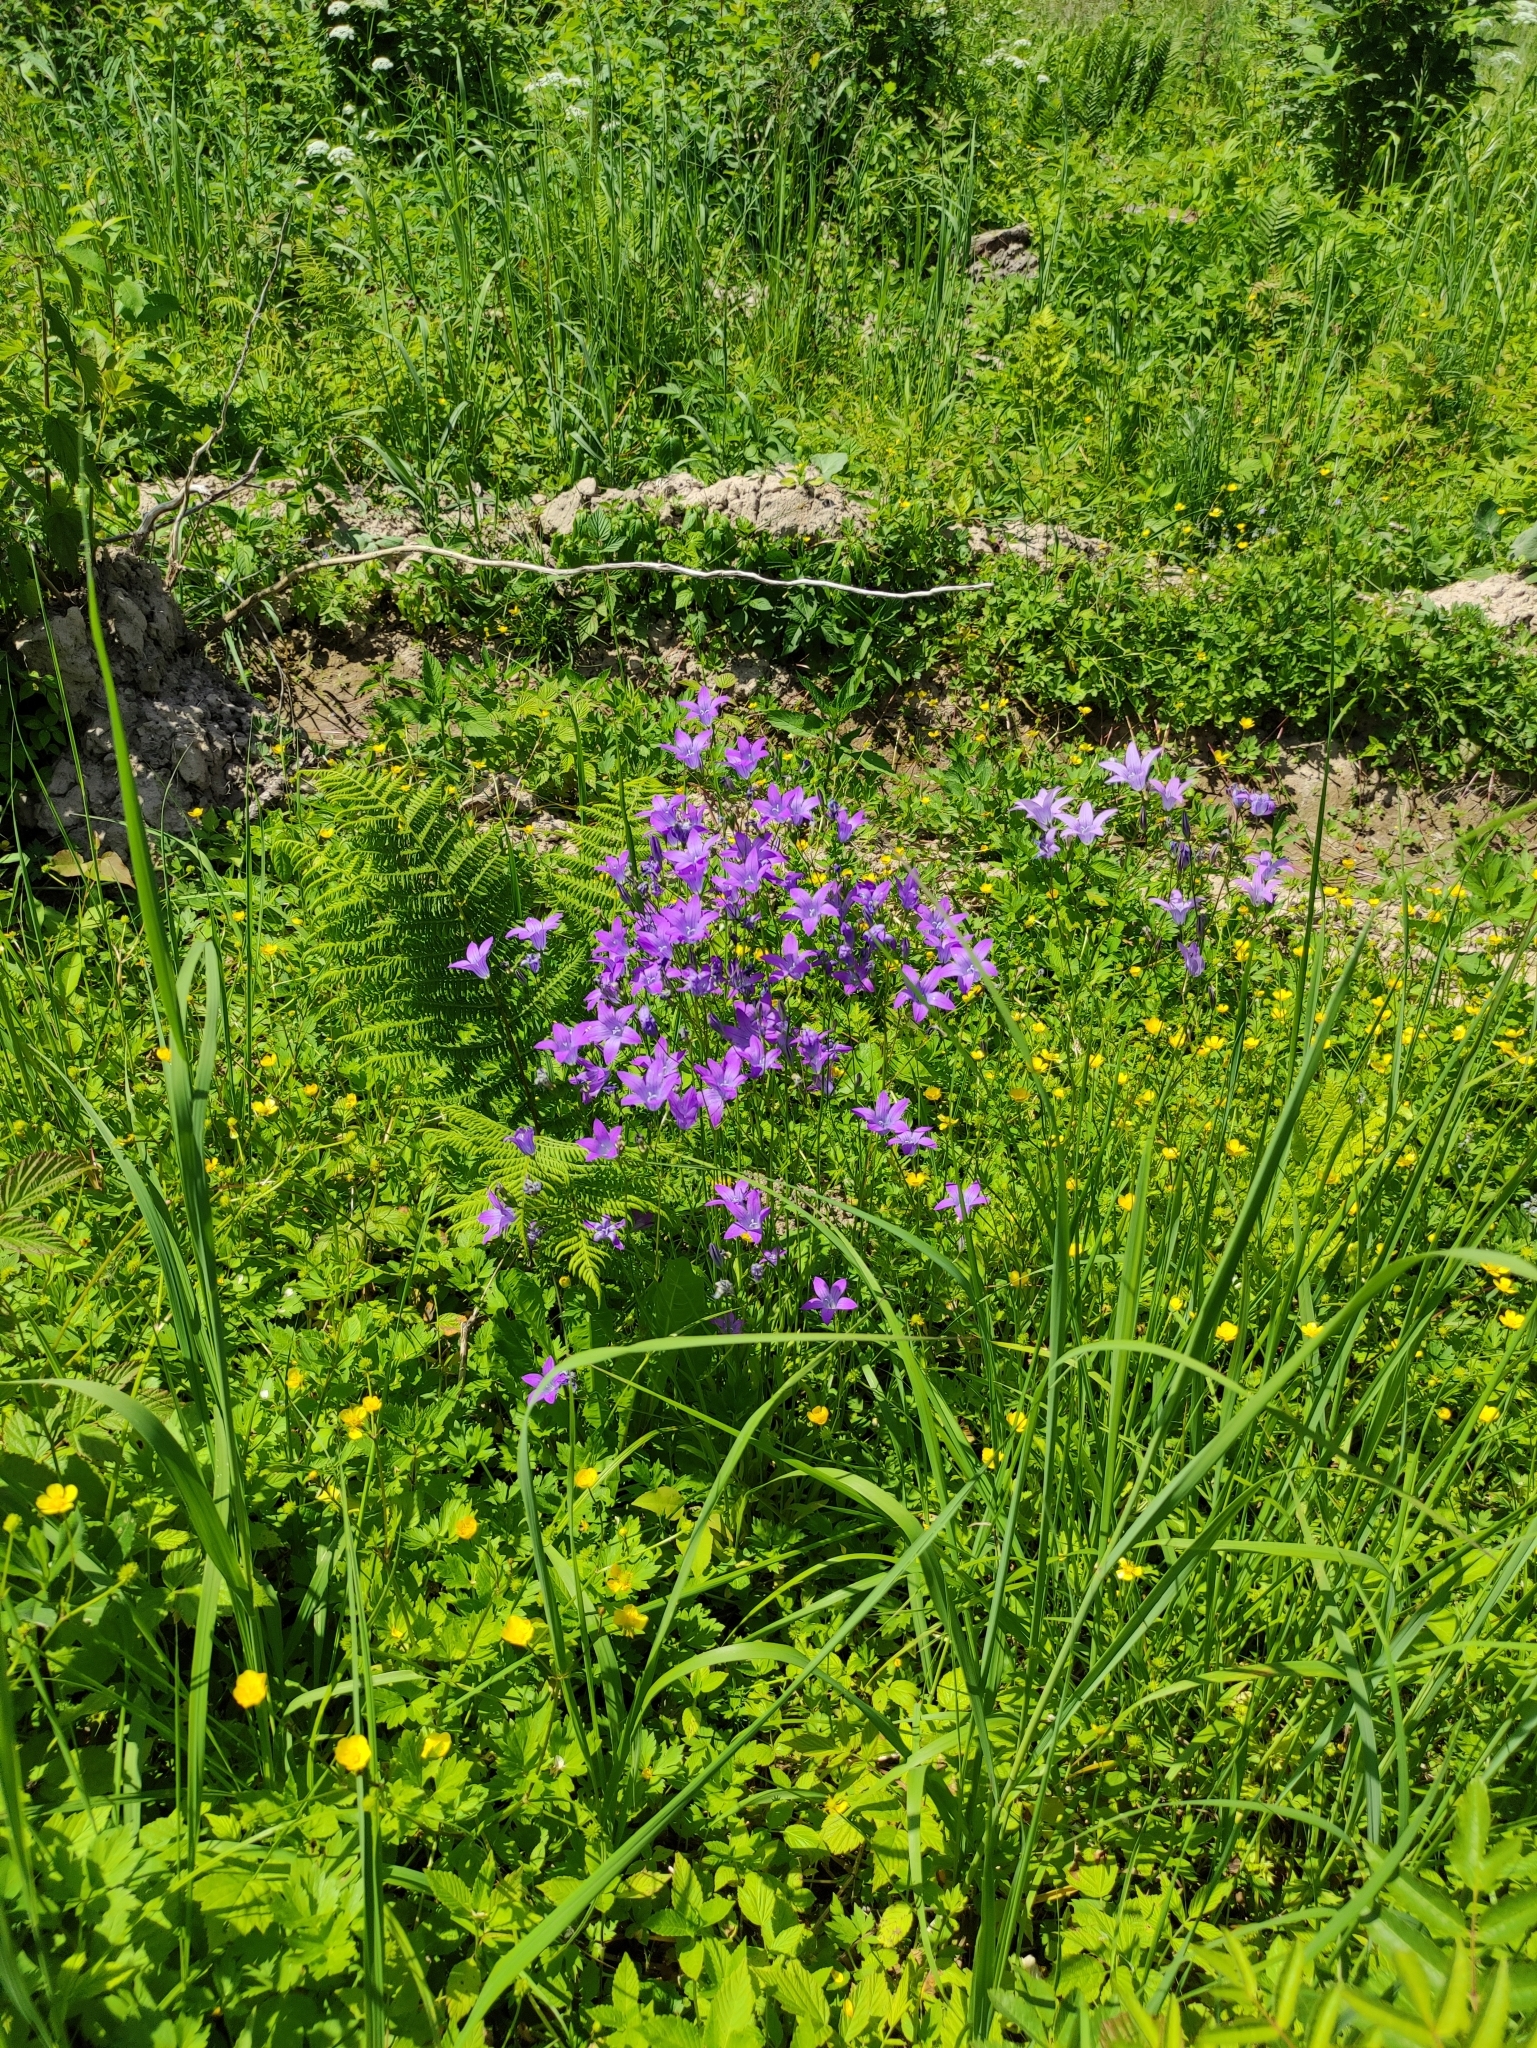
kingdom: Plantae
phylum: Tracheophyta
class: Magnoliopsida
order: Asterales
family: Campanulaceae
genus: Campanula
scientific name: Campanula patula
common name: Spreading bellflower
